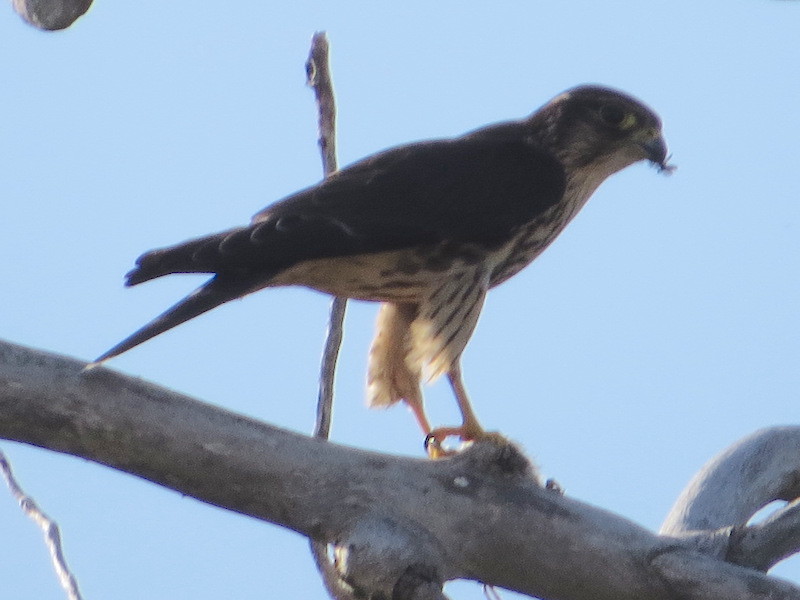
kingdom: Animalia
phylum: Chordata
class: Aves
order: Falconiformes
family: Falconidae
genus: Falco
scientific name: Falco columbarius
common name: Merlin
